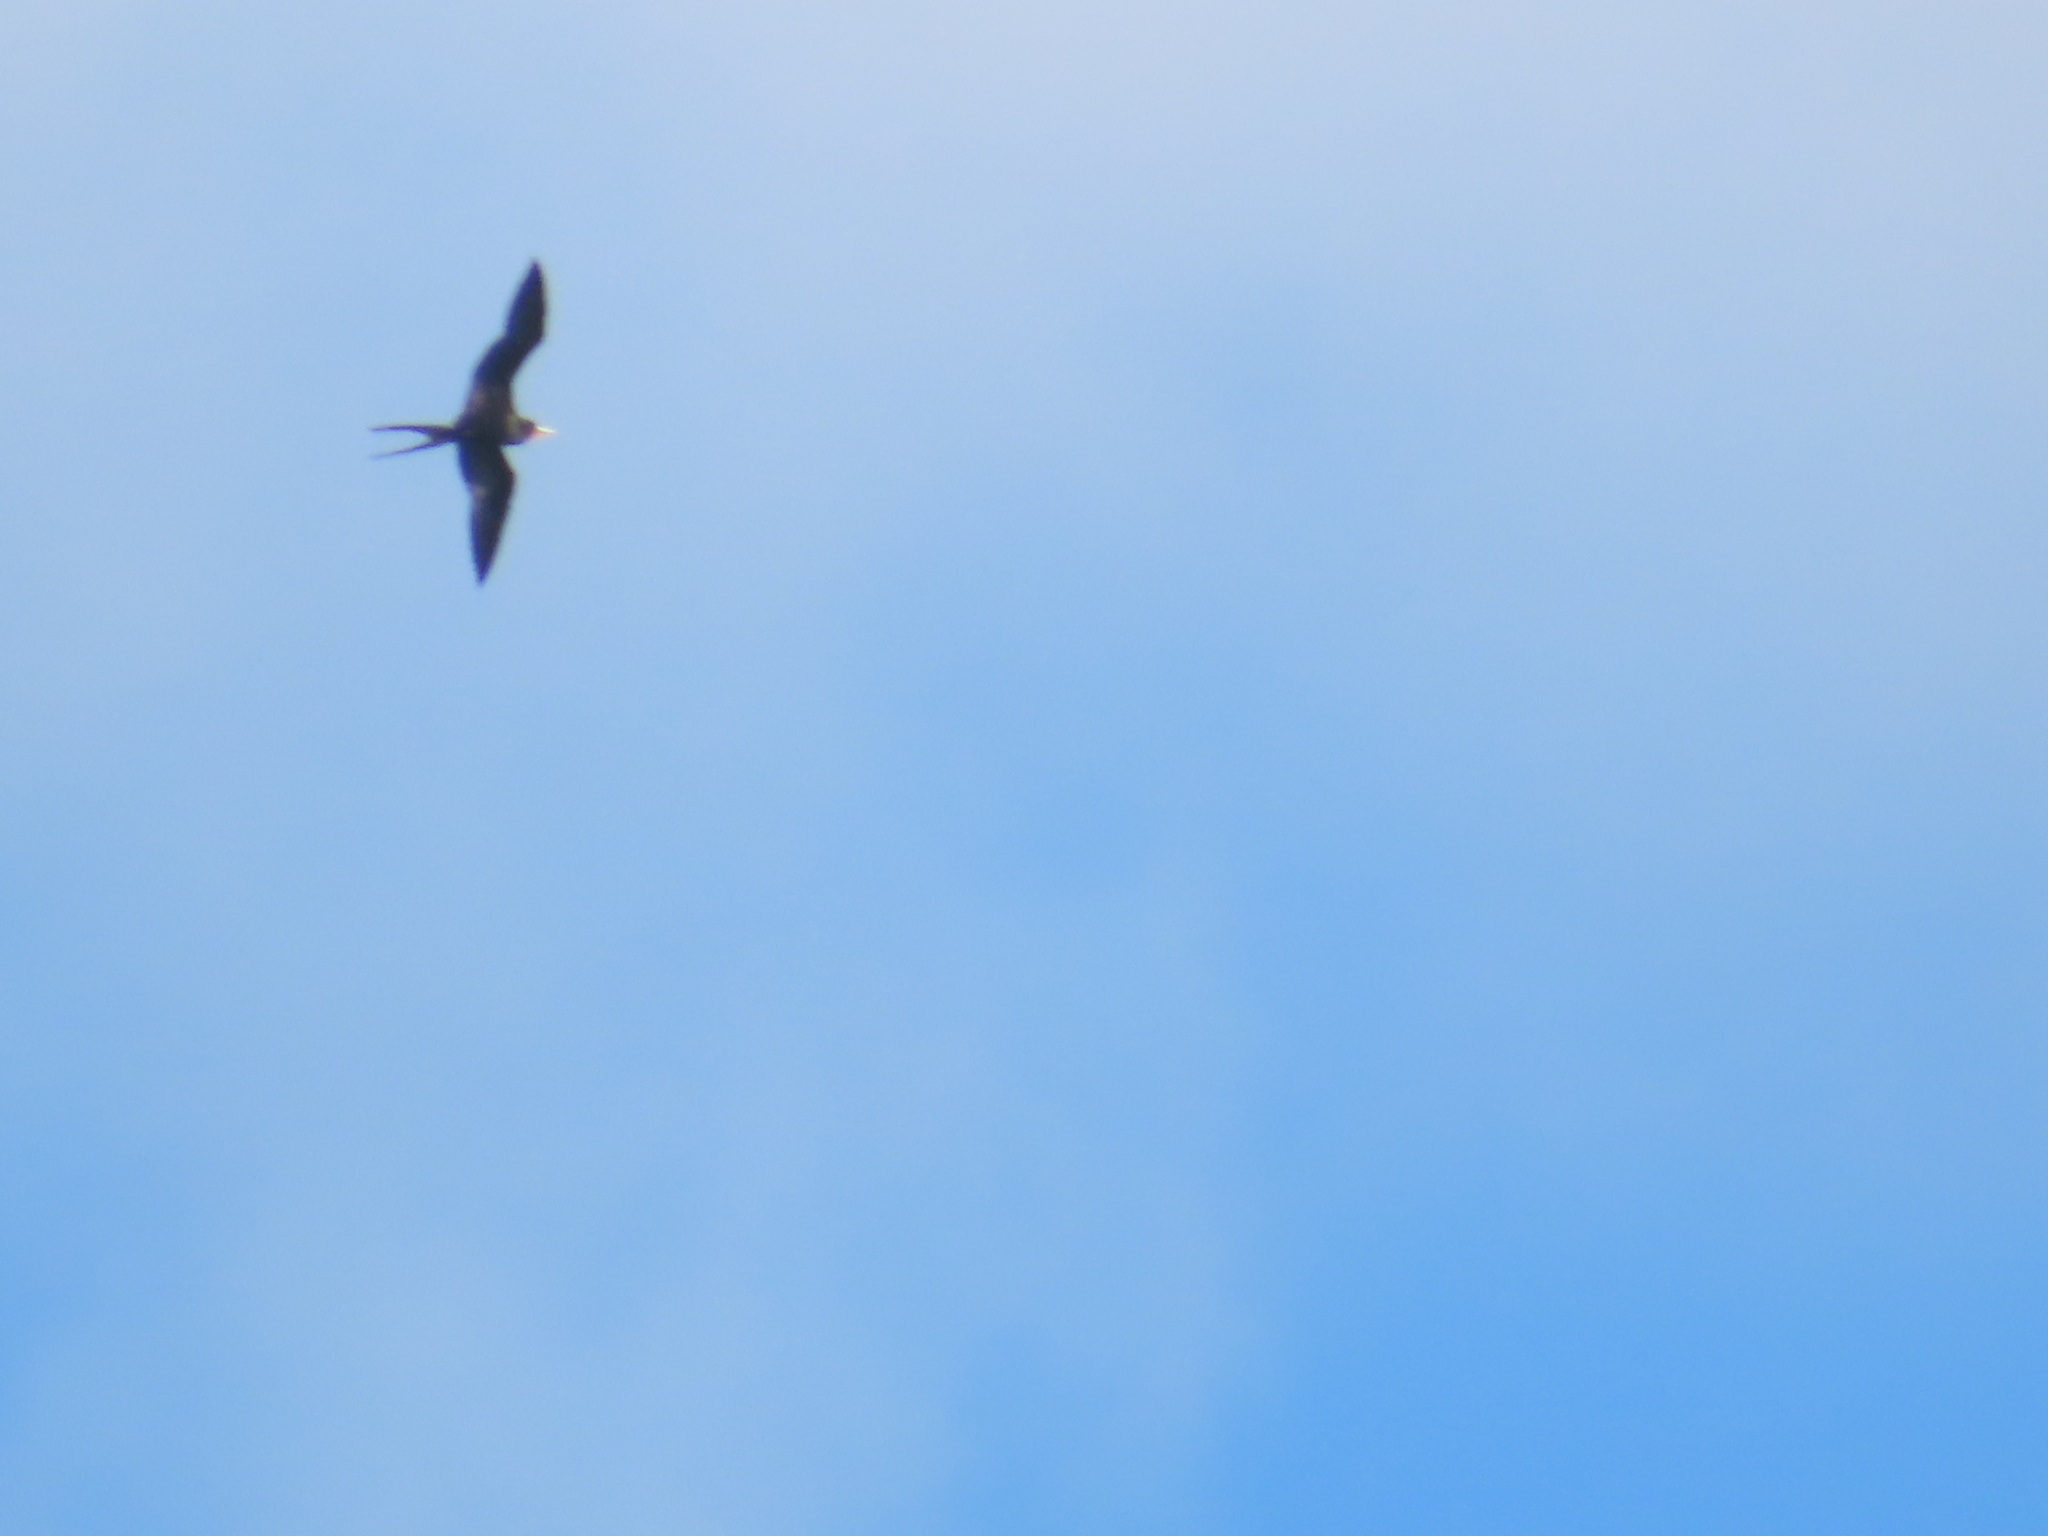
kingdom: Animalia
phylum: Chordata
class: Aves
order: Suliformes
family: Fregatidae
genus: Fregata
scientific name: Fregata magnificens
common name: Magnificent frigatebird
